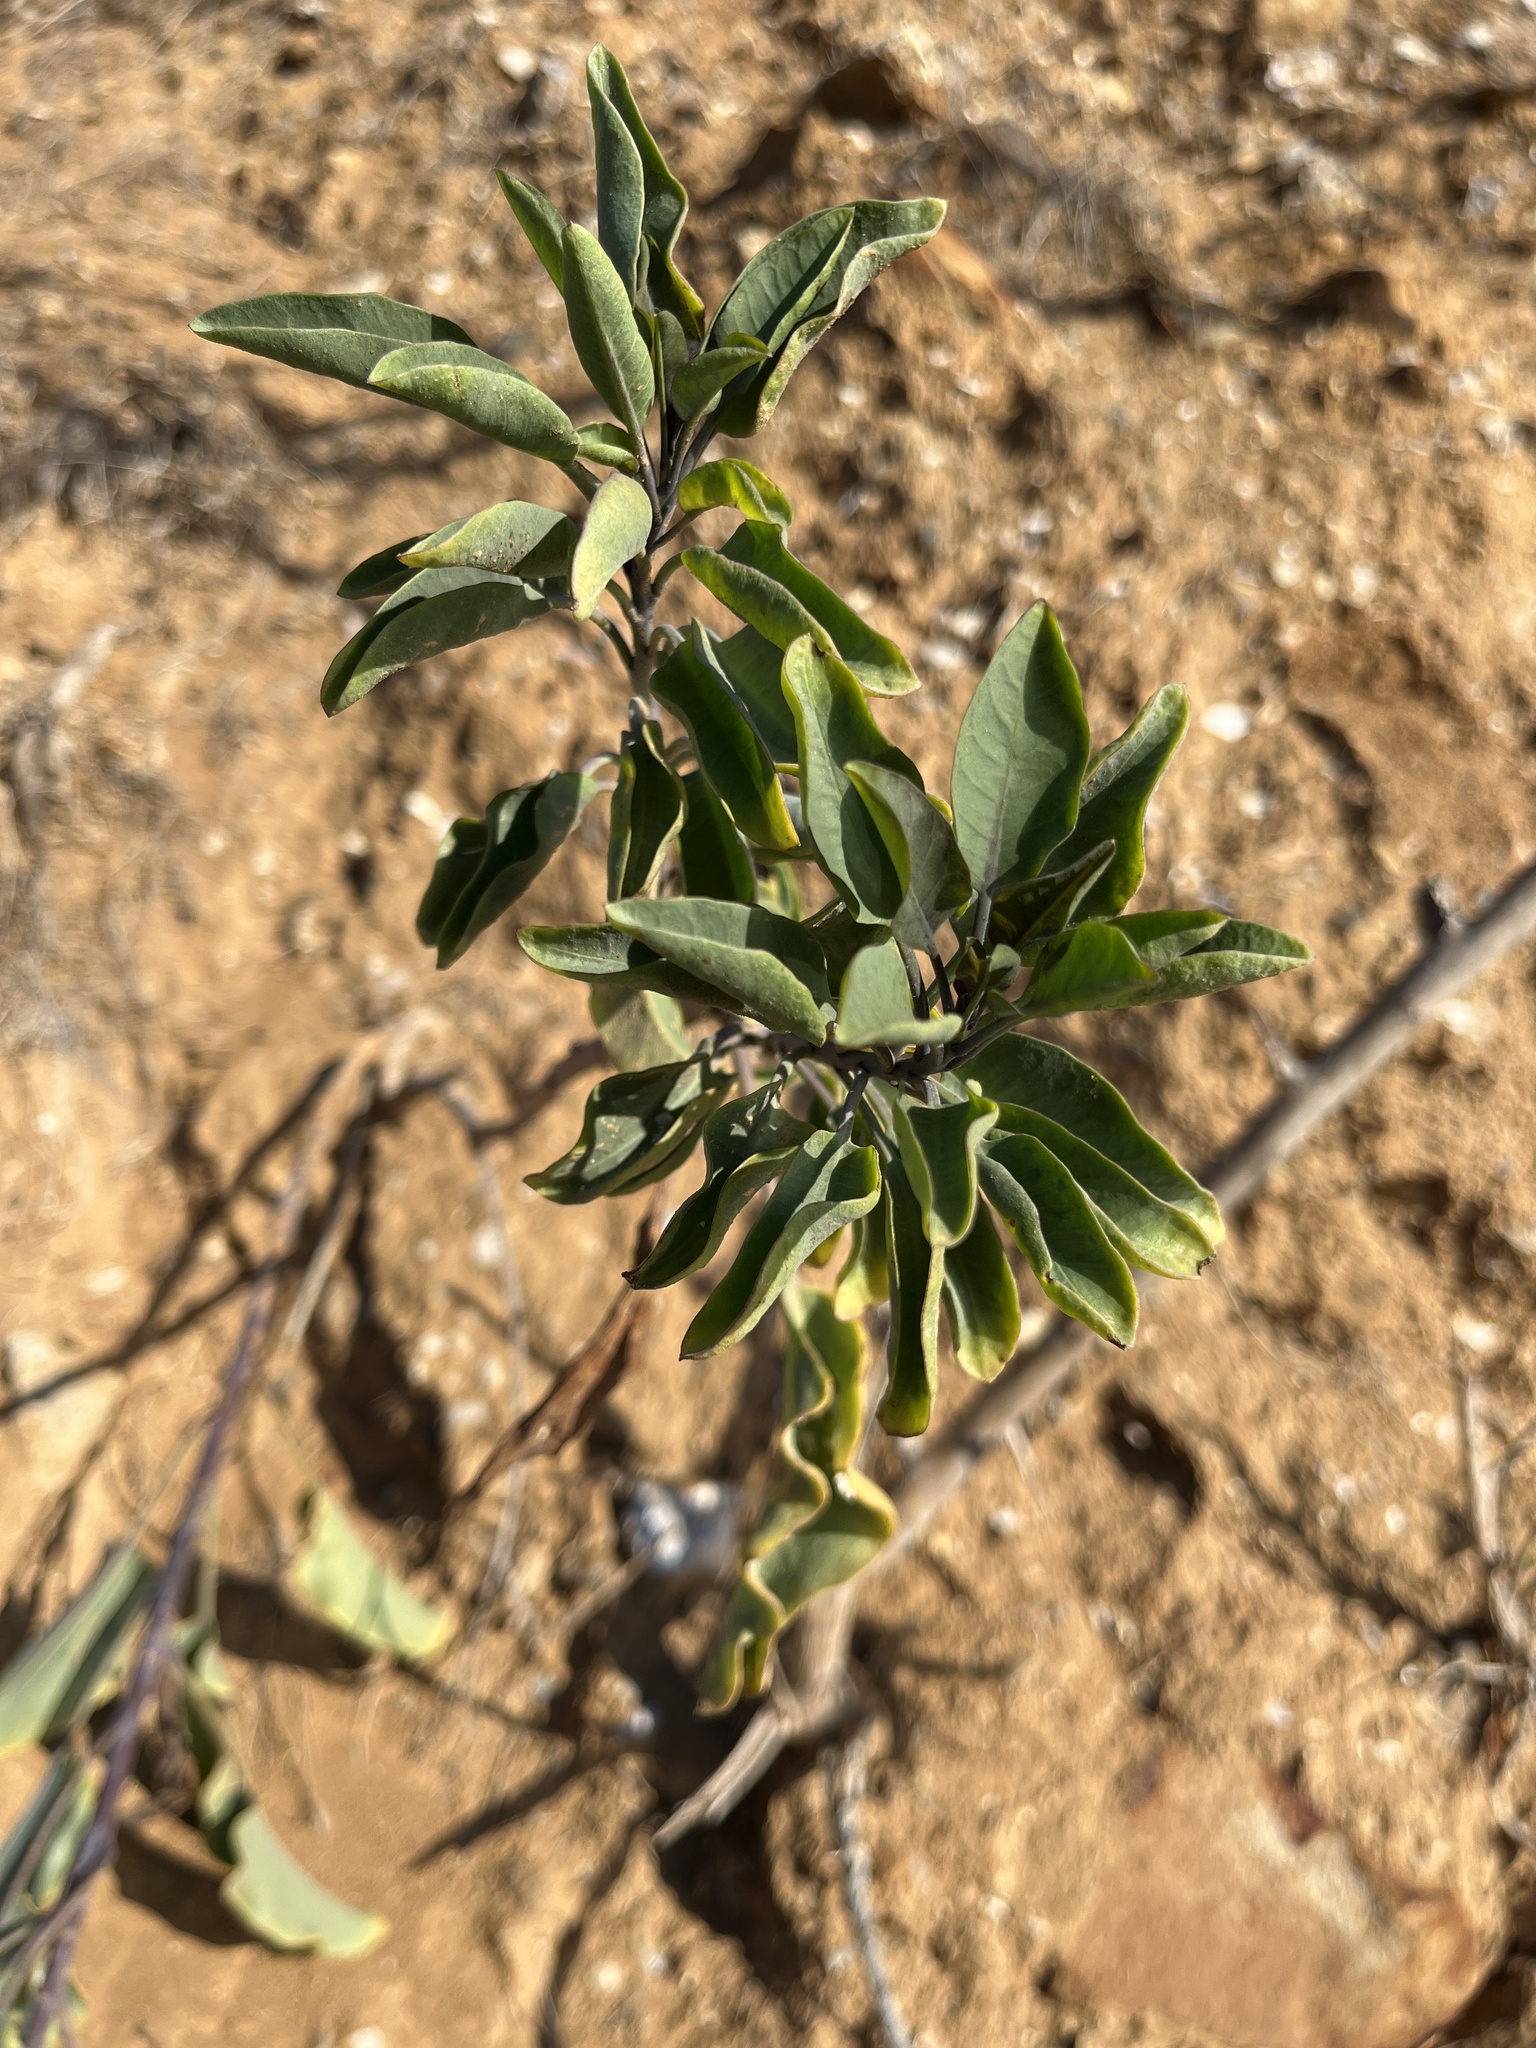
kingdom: Plantae
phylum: Tracheophyta
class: Magnoliopsida
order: Solanales
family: Solanaceae
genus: Nicotiana
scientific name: Nicotiana glauca
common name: Tree tobacco
